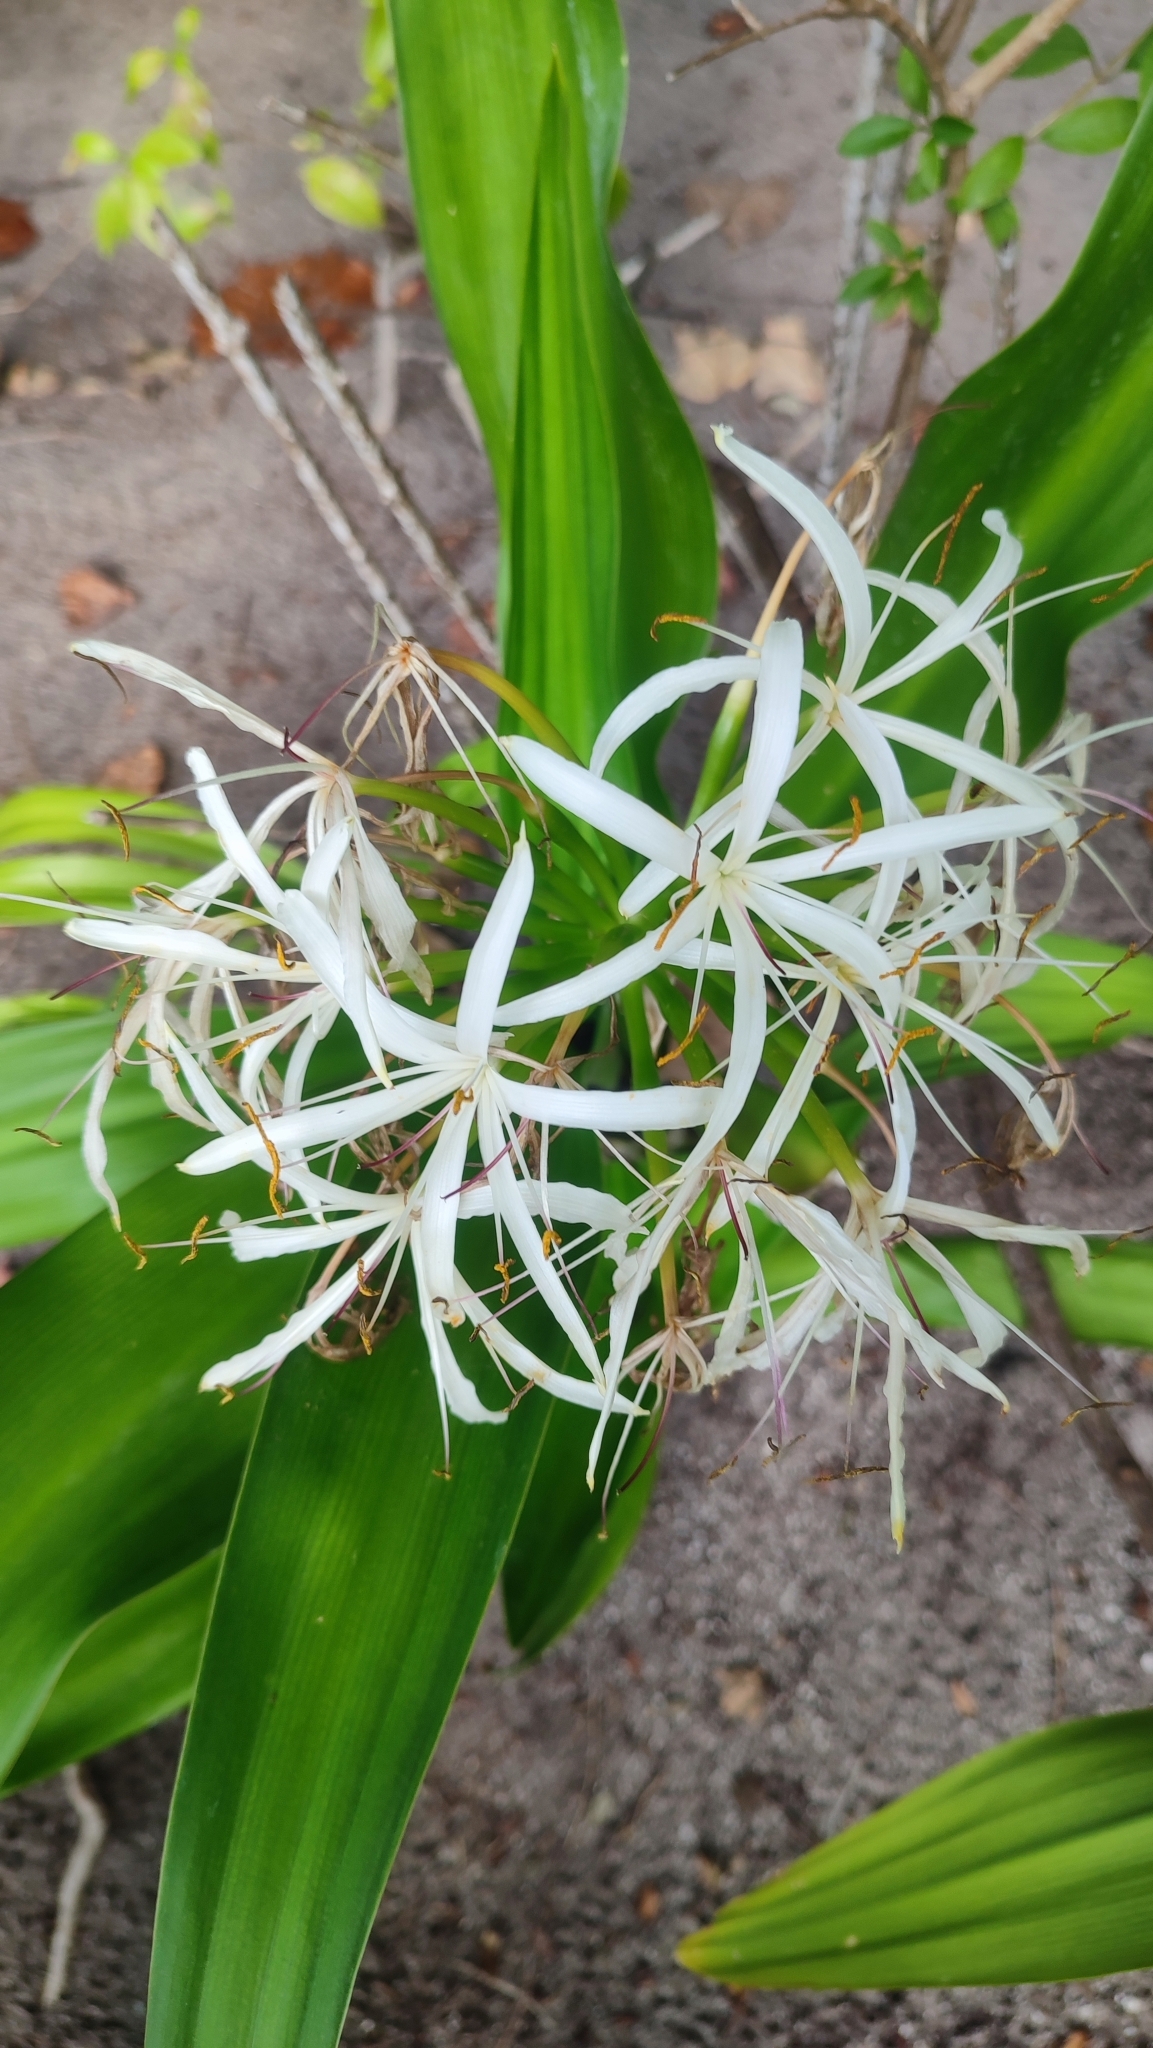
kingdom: Plantae
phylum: Tracheophyta
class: Liliopsida
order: Asparagales
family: Amaryllidaceae
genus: Crinum
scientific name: Crinum asiaticum
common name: Poisonbulb
